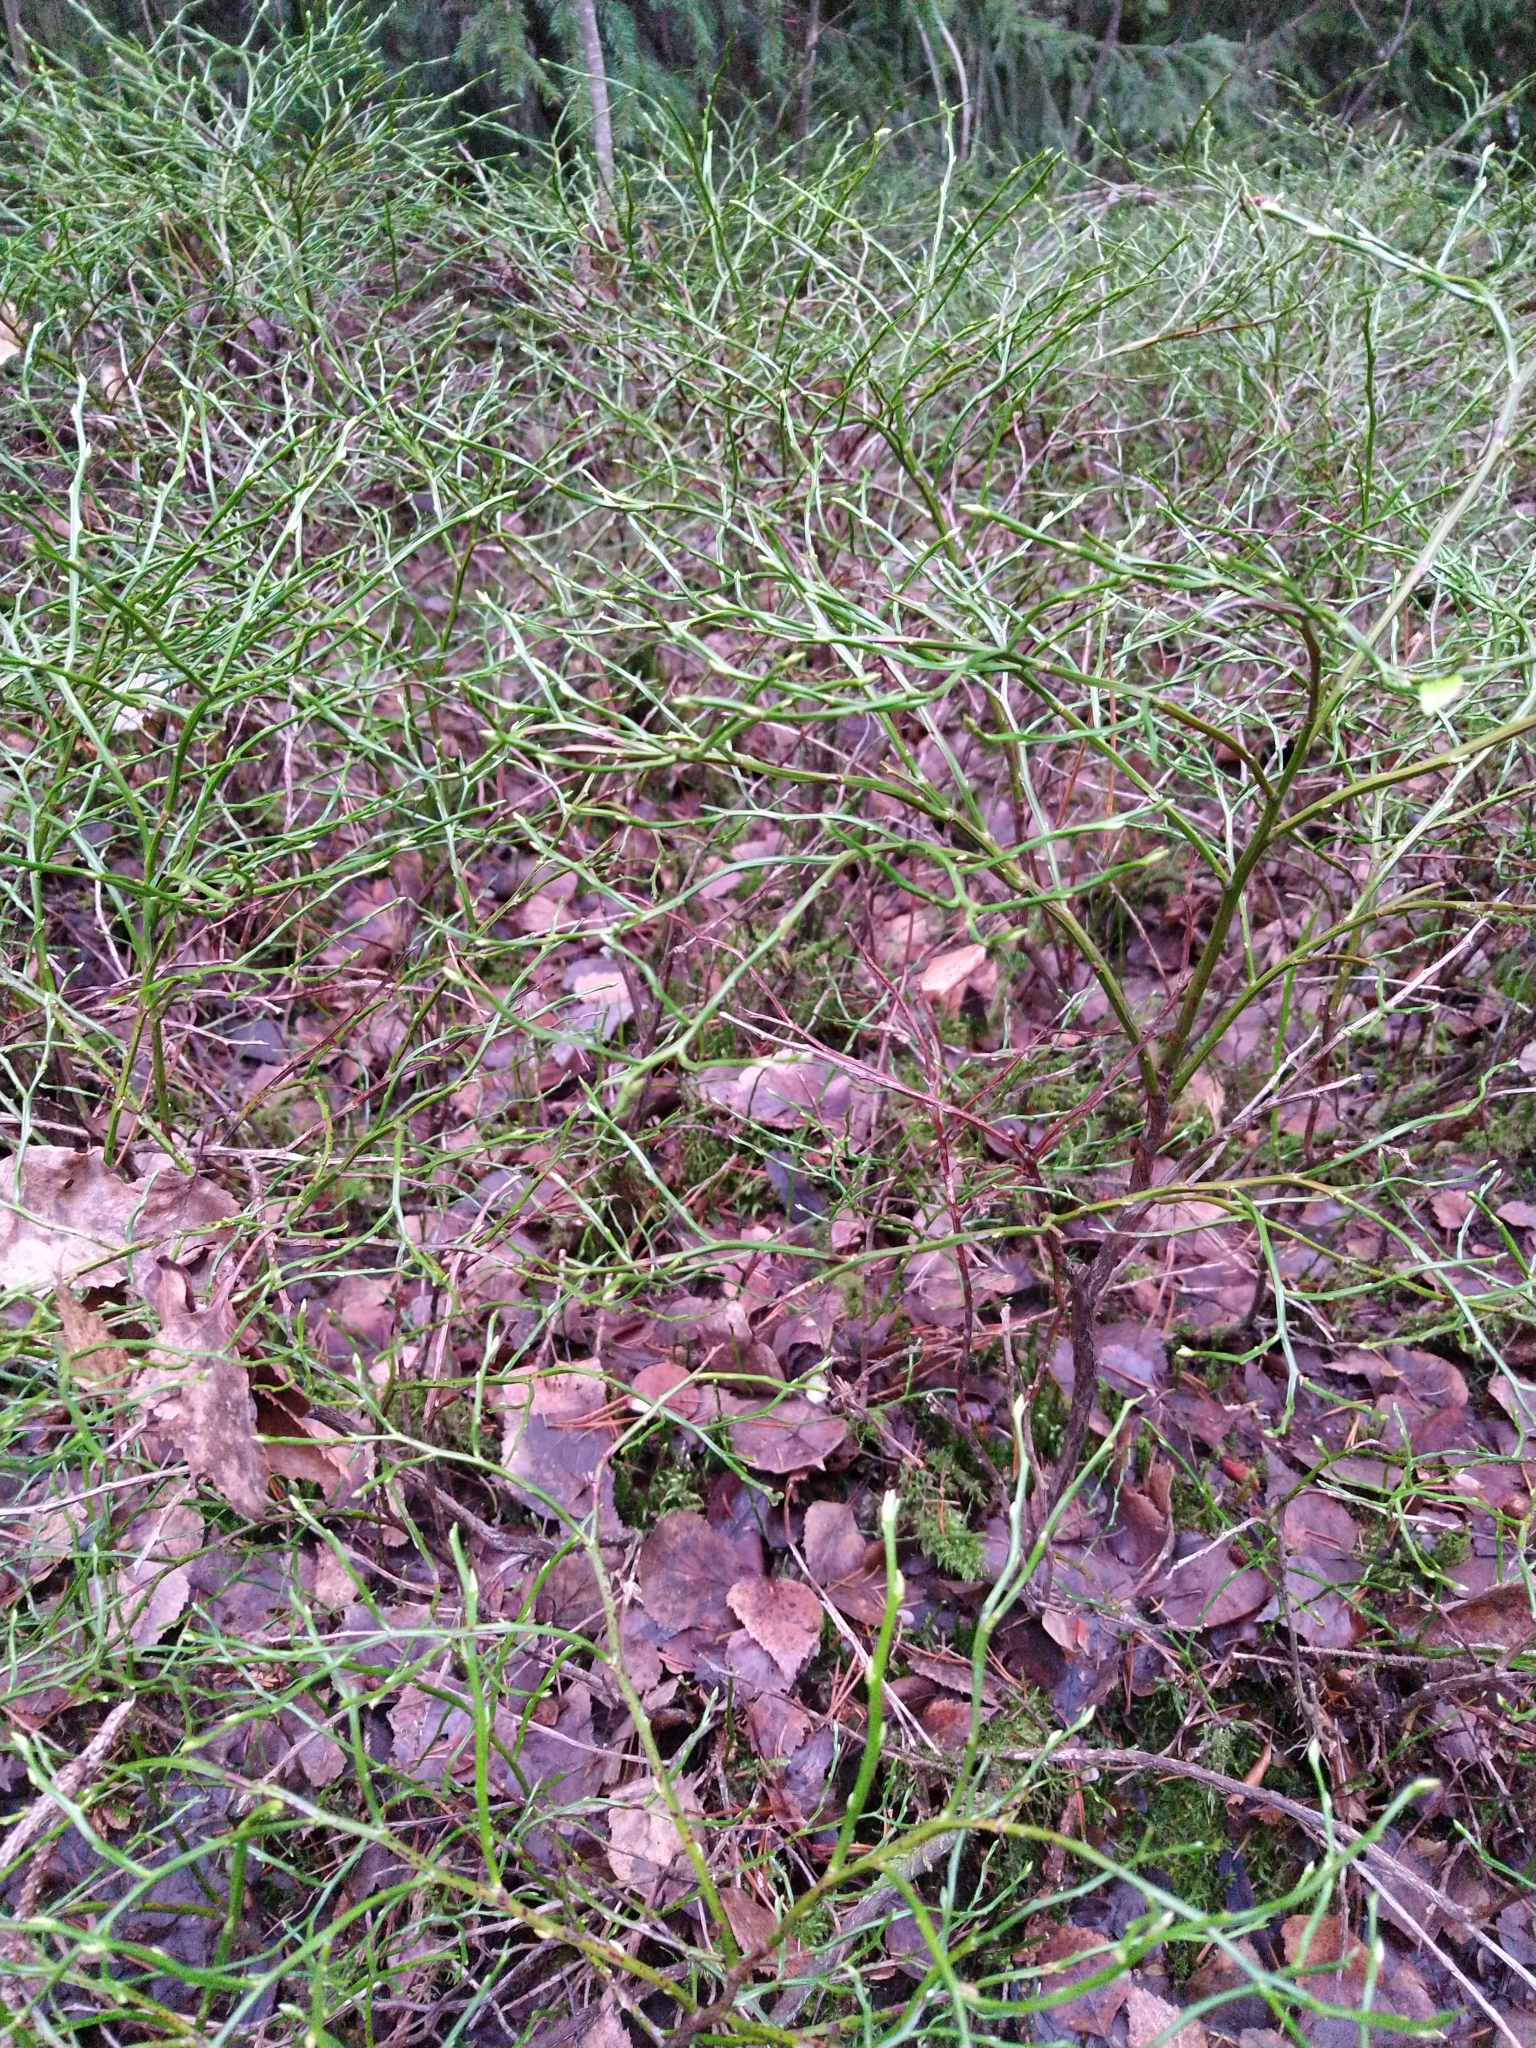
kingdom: Plantae
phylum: Tracheophyta
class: Magnoliopsida
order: Ericales
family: Ericaceae
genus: Vaccinium
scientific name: Vaccinium myrtillus
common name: Bilberry
